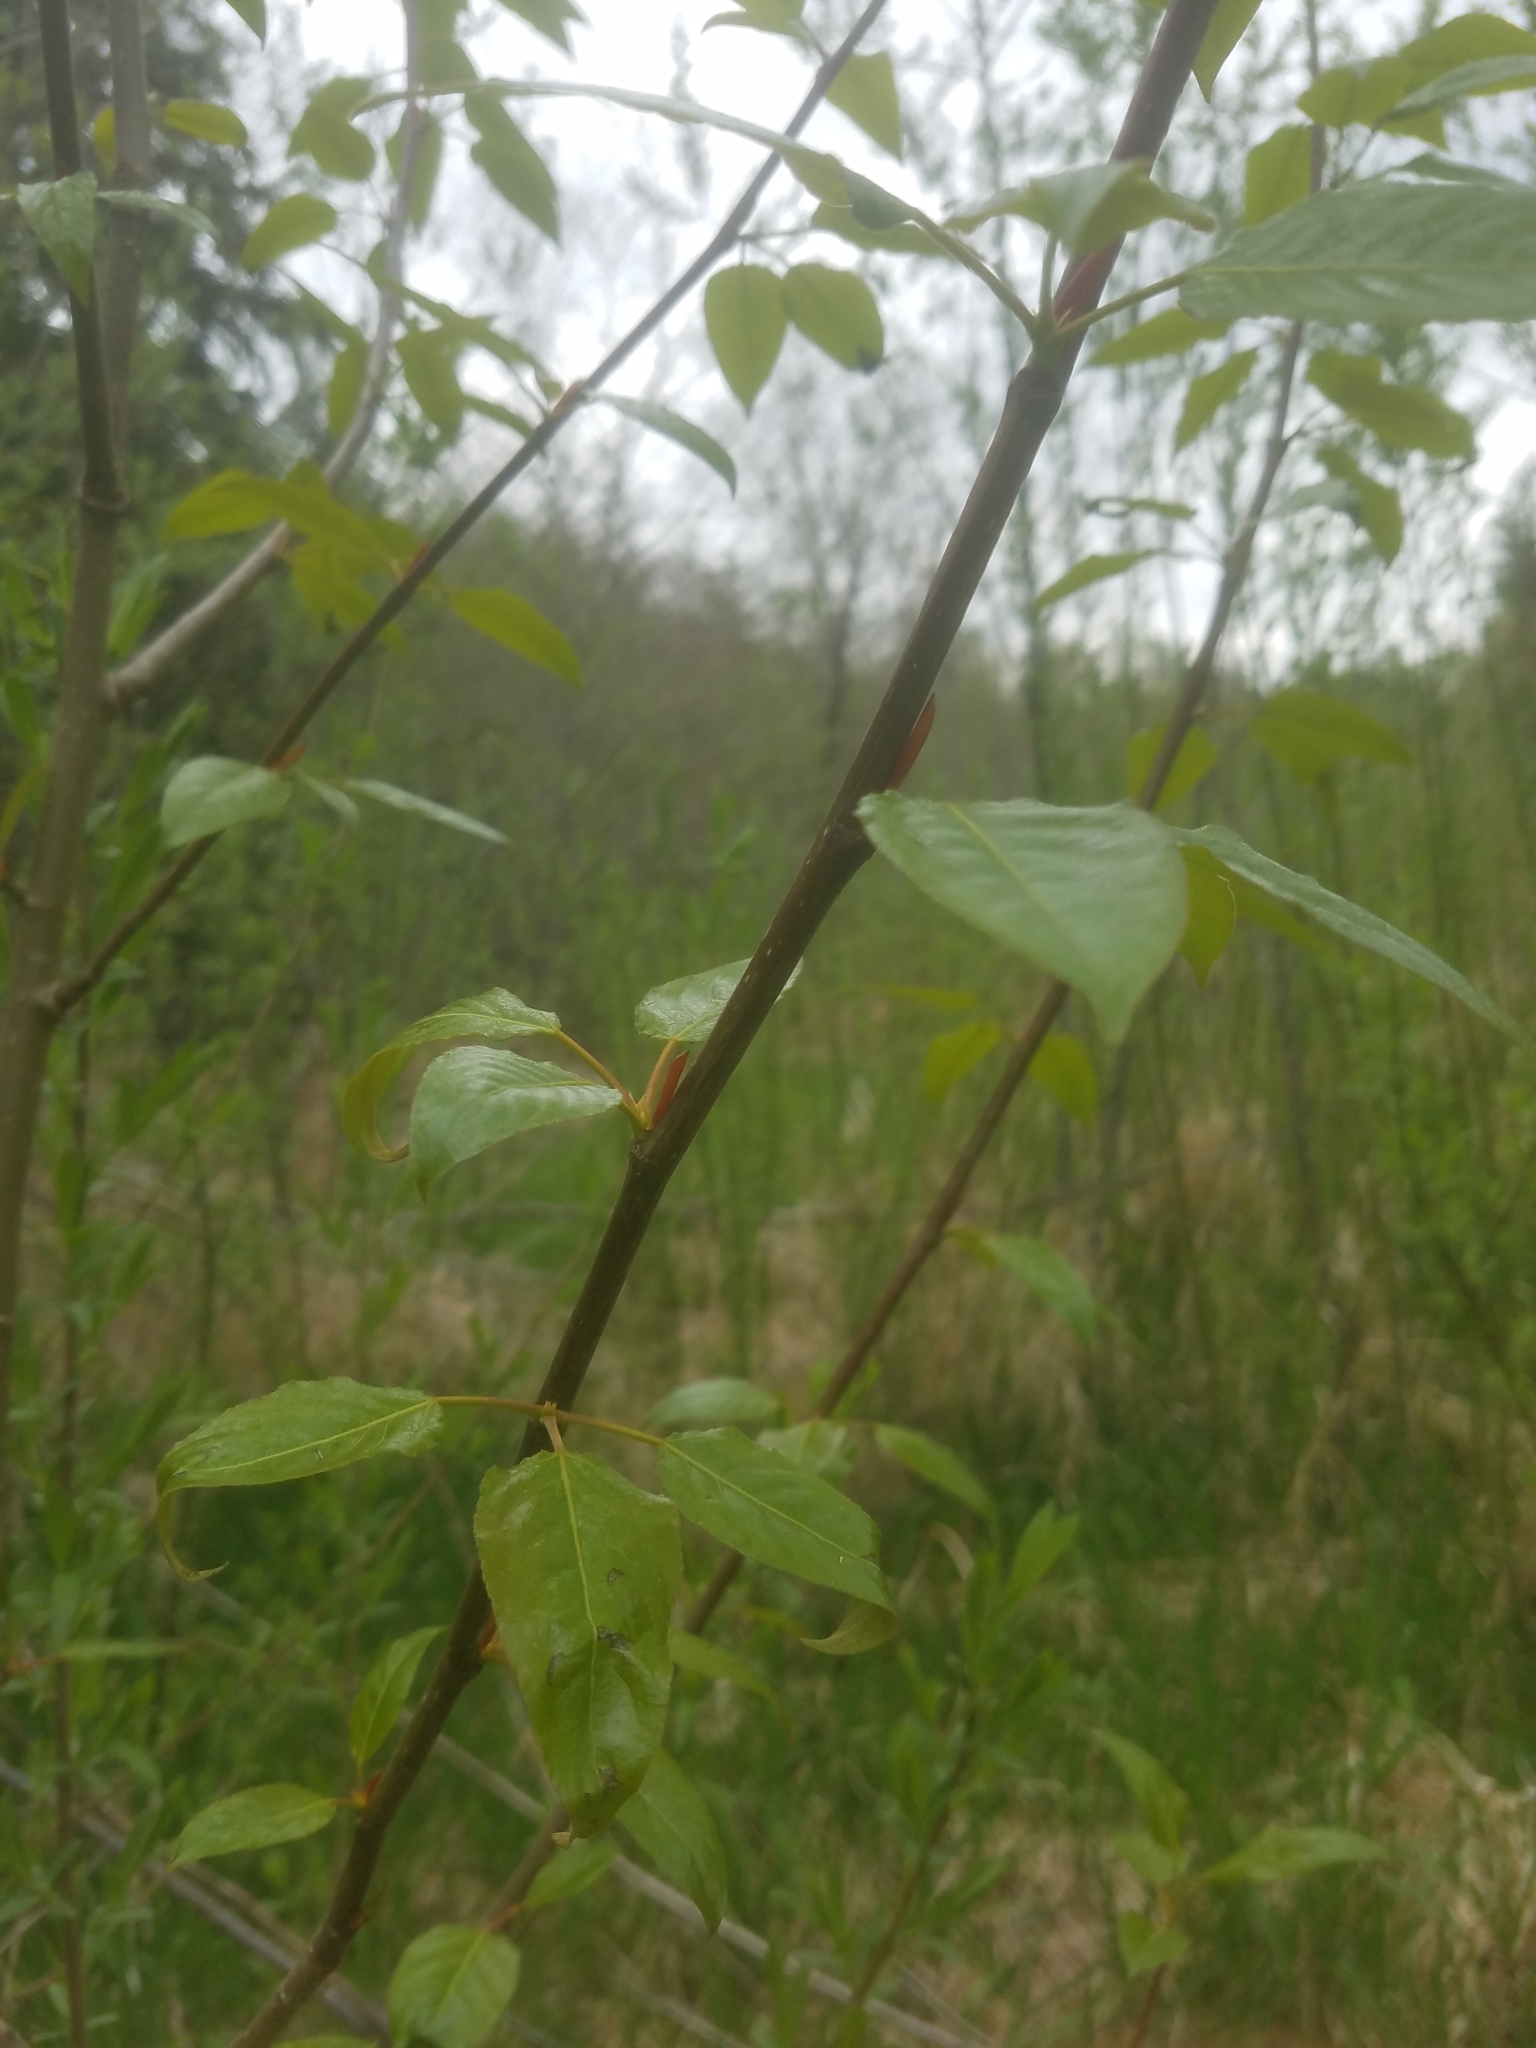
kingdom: Plantae
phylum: Tracheophyta
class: Magnoliopsida
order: Malpighiales
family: Salicaceae
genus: Populus
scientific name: Populus trichocarpa
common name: Black cottonwood
